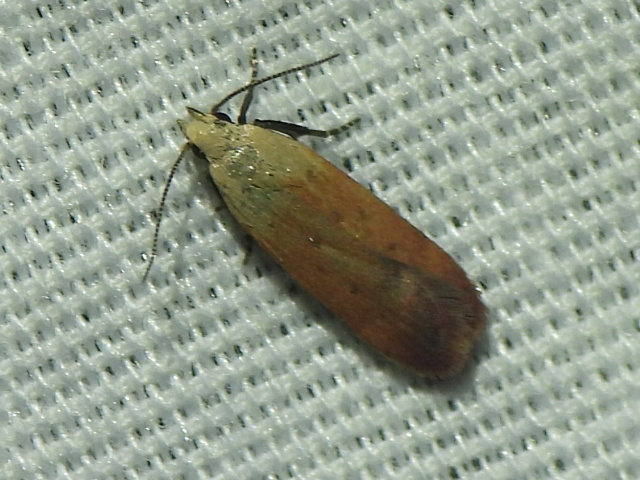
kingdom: Animalia
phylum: Arthropoda
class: Insecta
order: Lepidoptera
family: Gelechiidae
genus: Anacampsis
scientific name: Anacampsis fullonella
